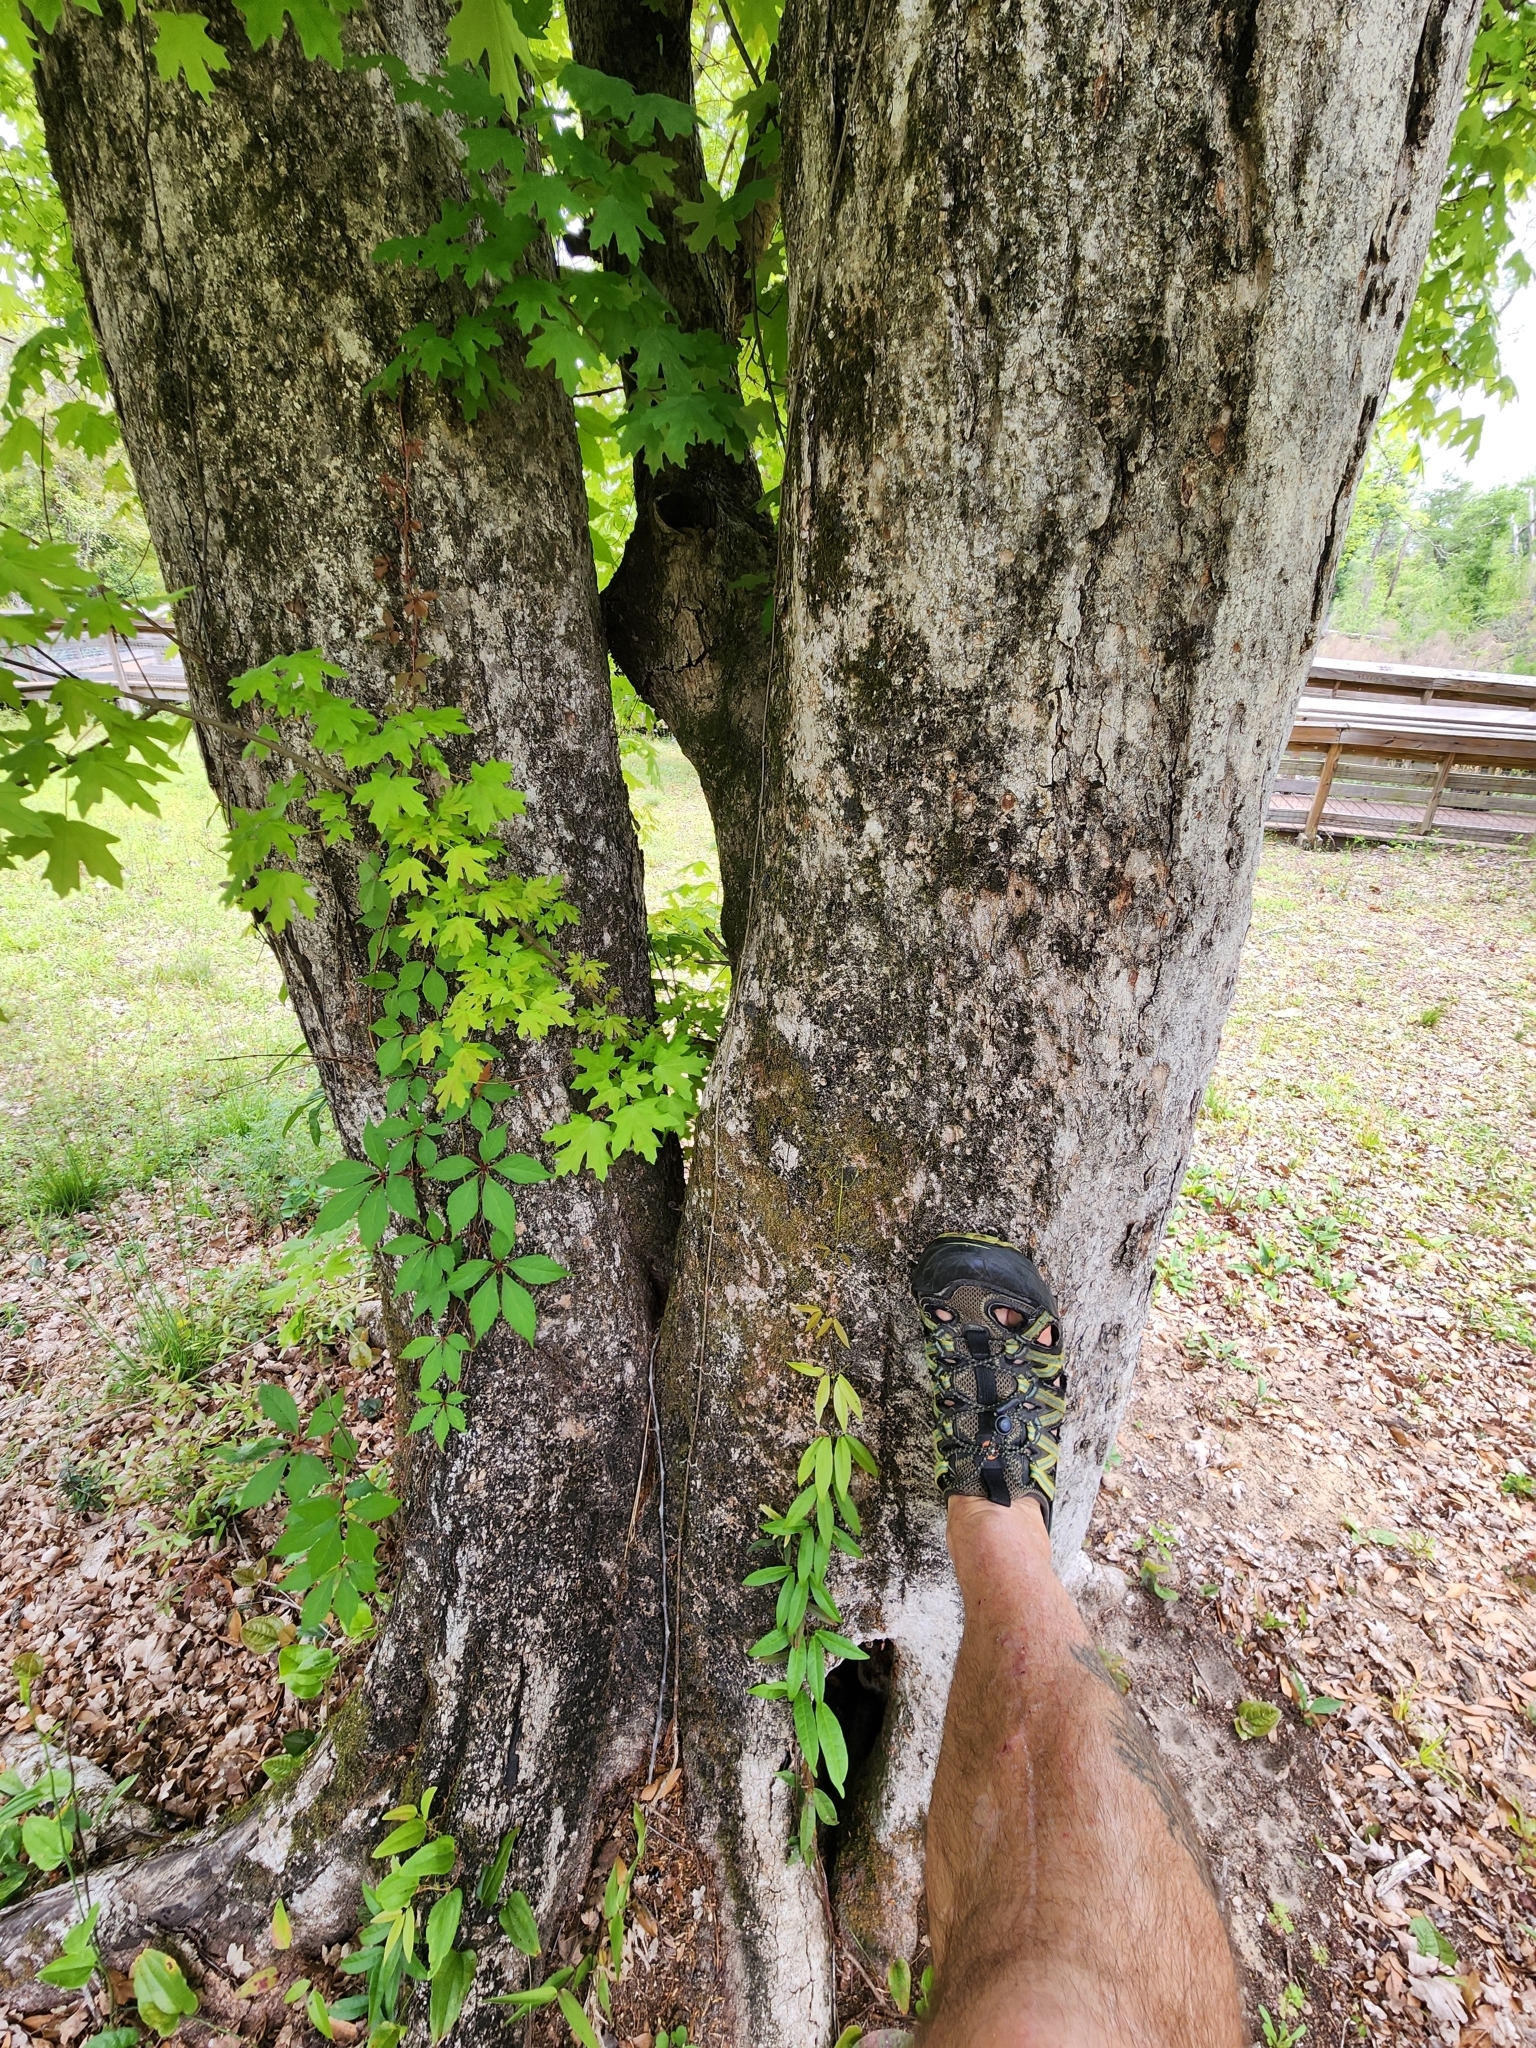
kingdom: Plantae
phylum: Tracheophyta
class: Magnoliopsida
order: Sapindales
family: Sapindaceae
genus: Acer
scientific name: Acer floridanum
